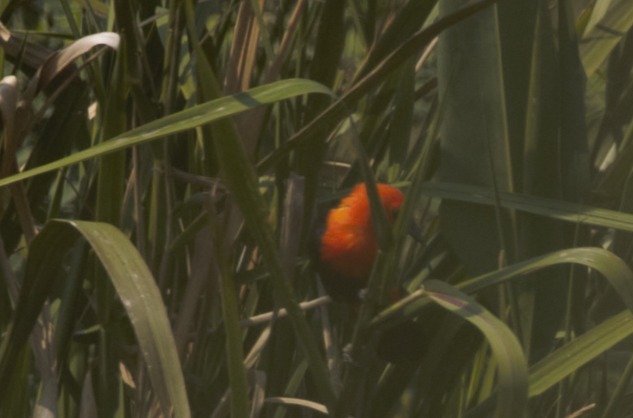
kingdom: Animalia
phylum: Chordata
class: Aves
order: Passeriformes
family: Icteridae
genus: Amblyramphus
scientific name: Amblyramphus holosericeus
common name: Scarlet-headed blackbird
